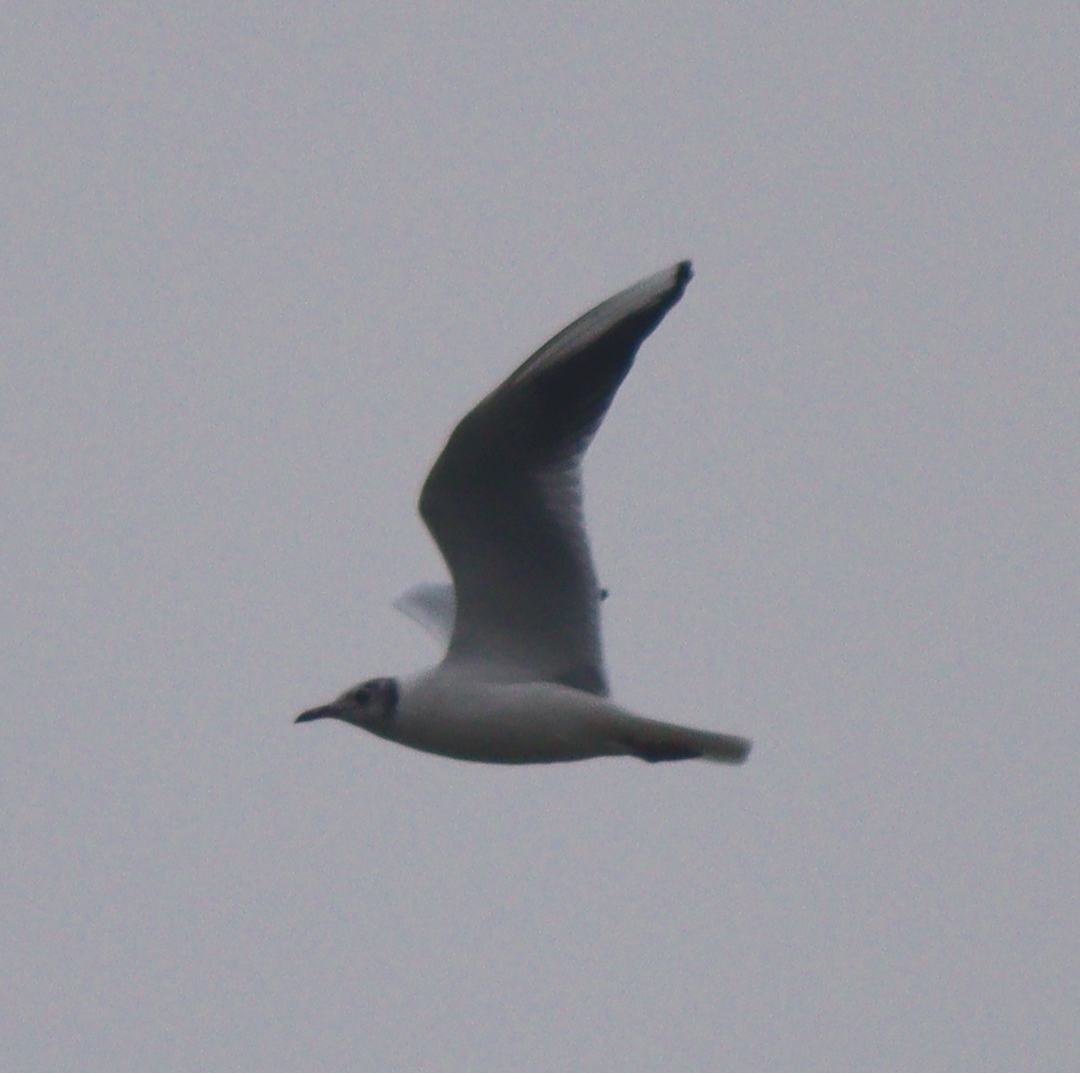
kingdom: Animalia
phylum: Chordata
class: Aves
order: Charadriiformes
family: Laridae
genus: Chroicocephalus
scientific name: Chroicocephalus ridibundus
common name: Black-headed gull
